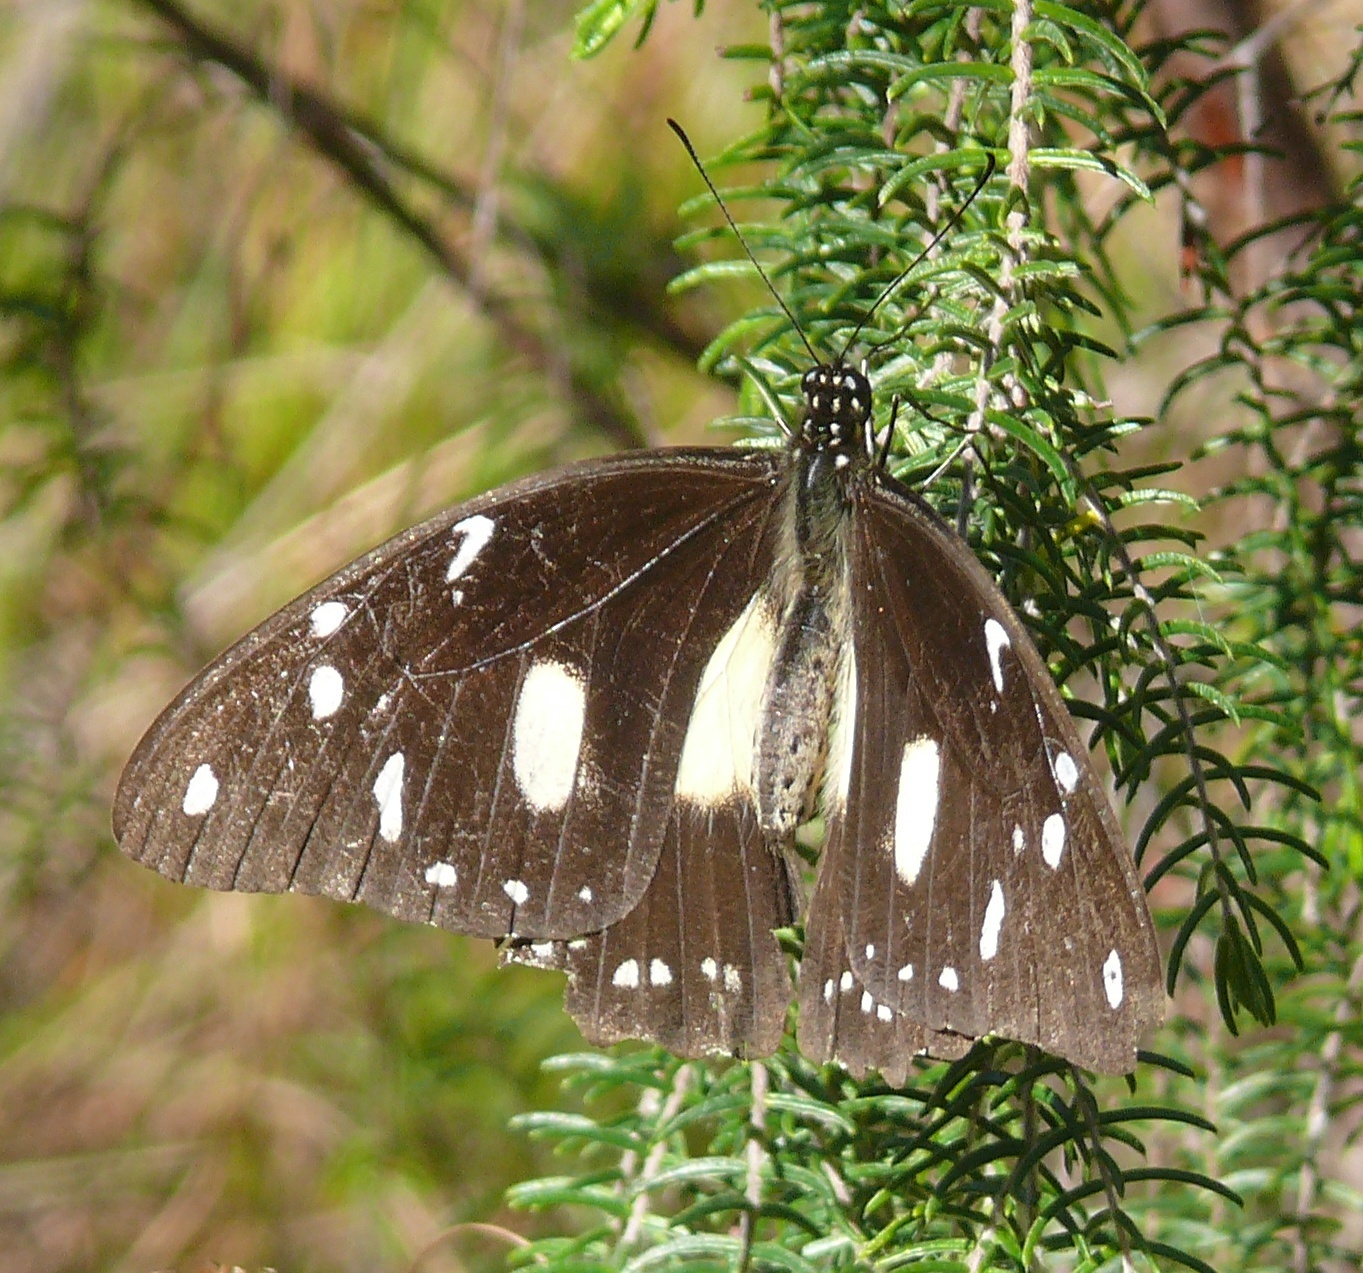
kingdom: Animalia
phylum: Arthropoda
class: Insecta
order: Lepidoptera
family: Papilionidae
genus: Papilio
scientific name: Papilio dardanus
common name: Flying handkerchief
